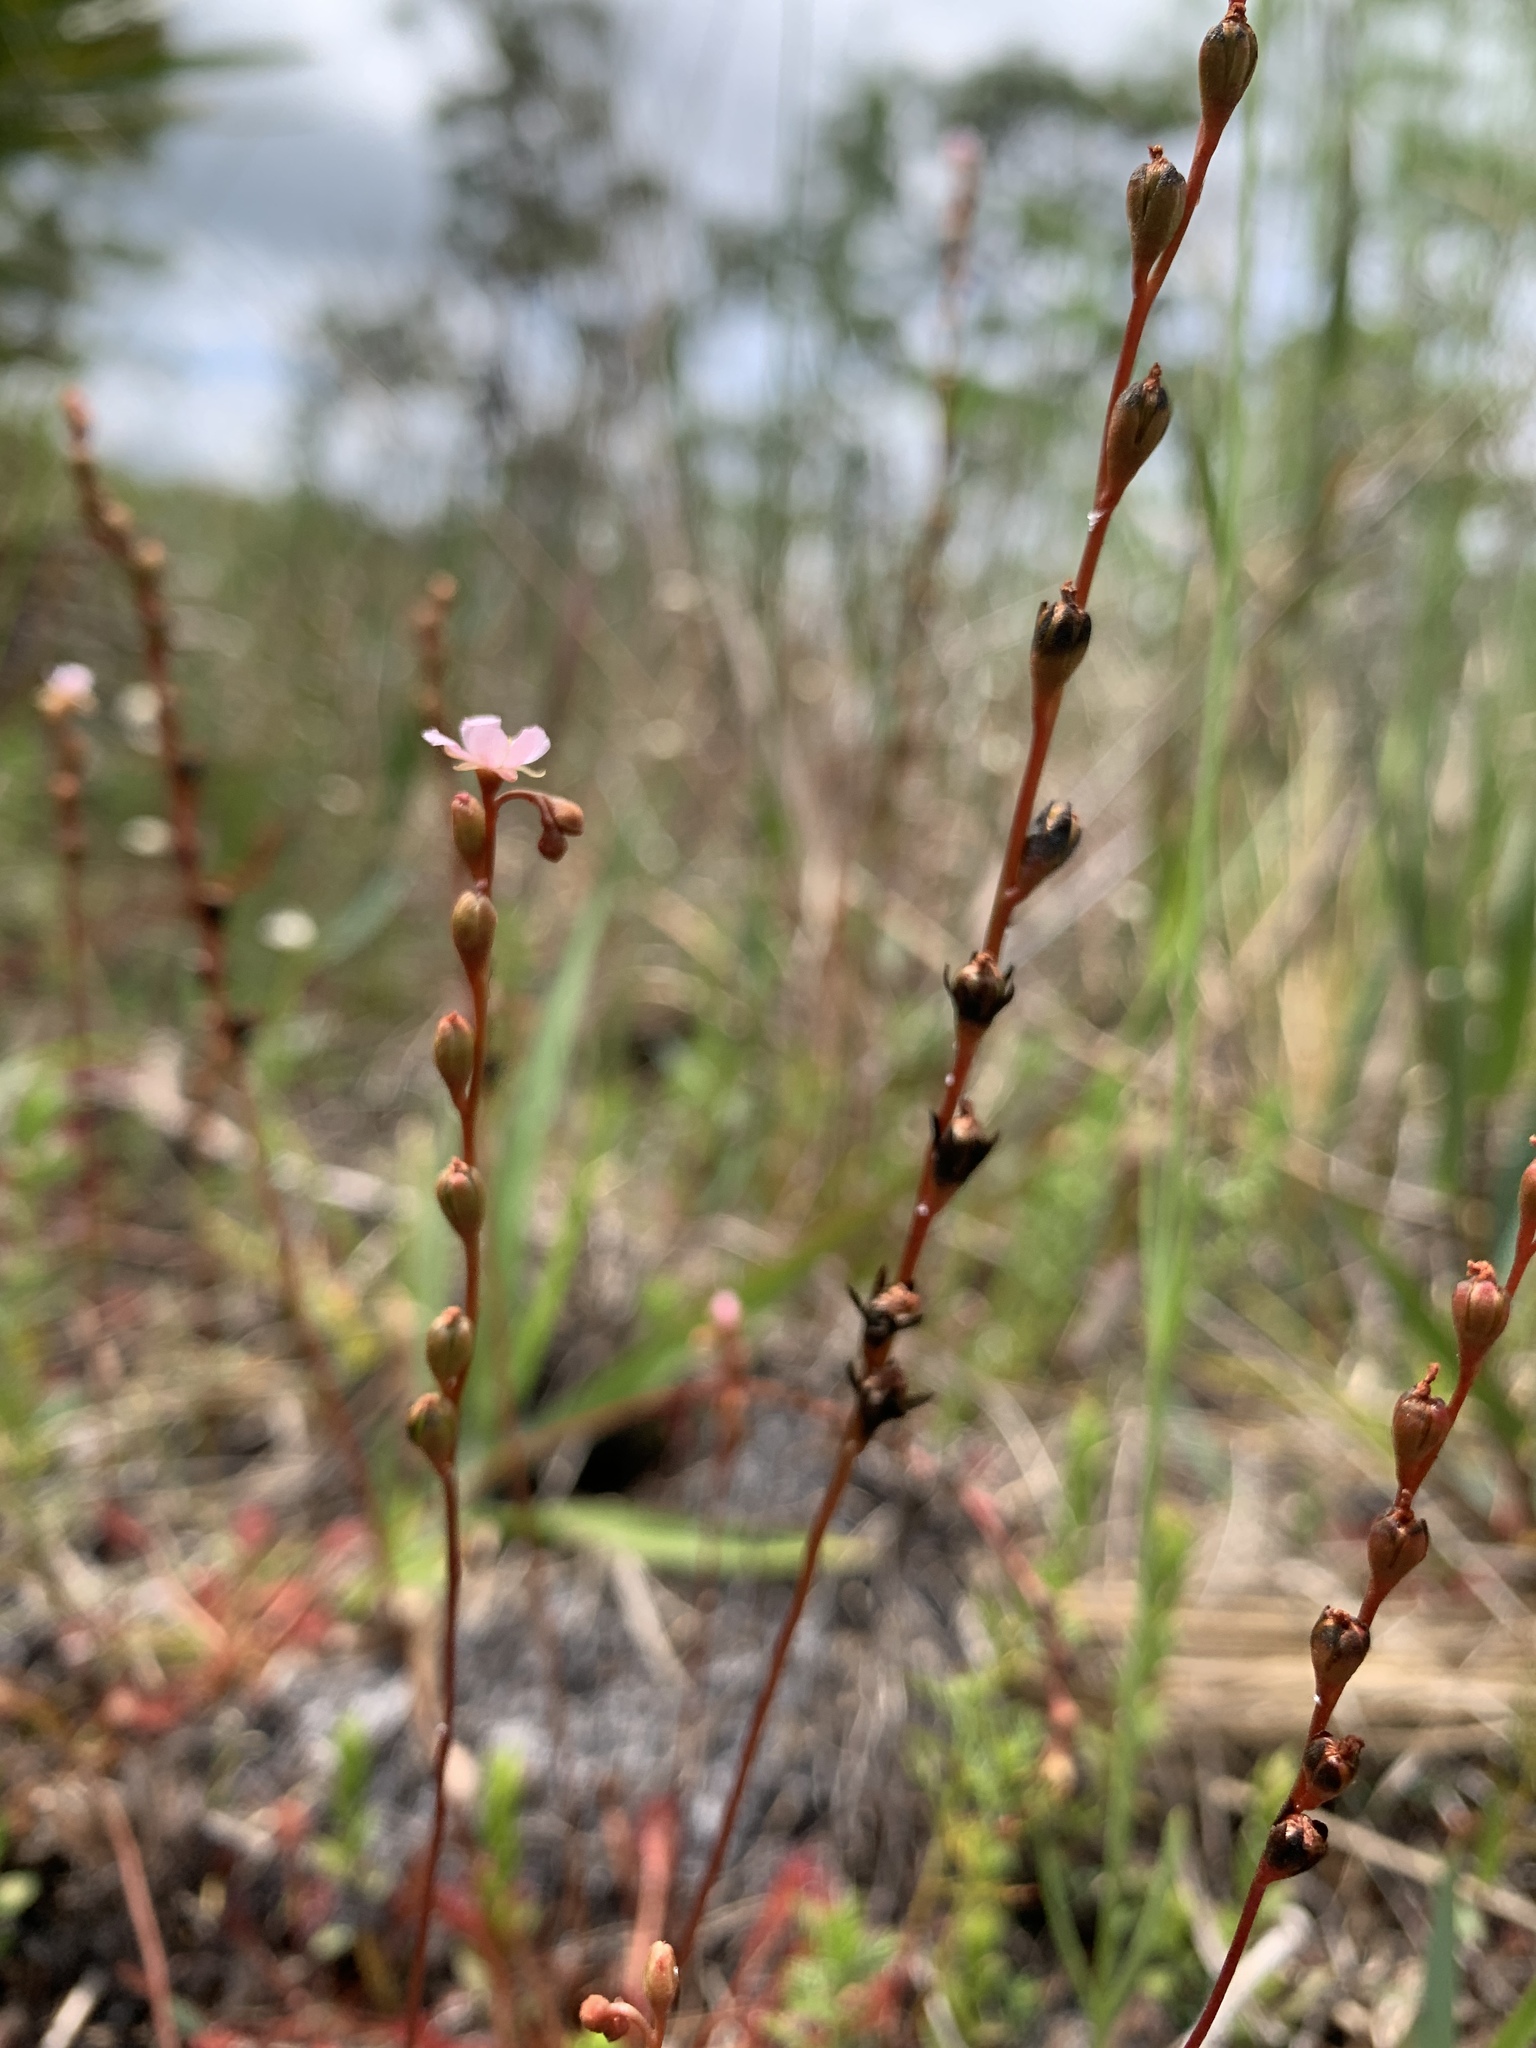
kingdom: Plantae
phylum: Tracheophyta
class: Magnoliopsida
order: Caryophyllales
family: Droseraceae
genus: Drosera
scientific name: Drosera capillaris
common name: Pink sundew
